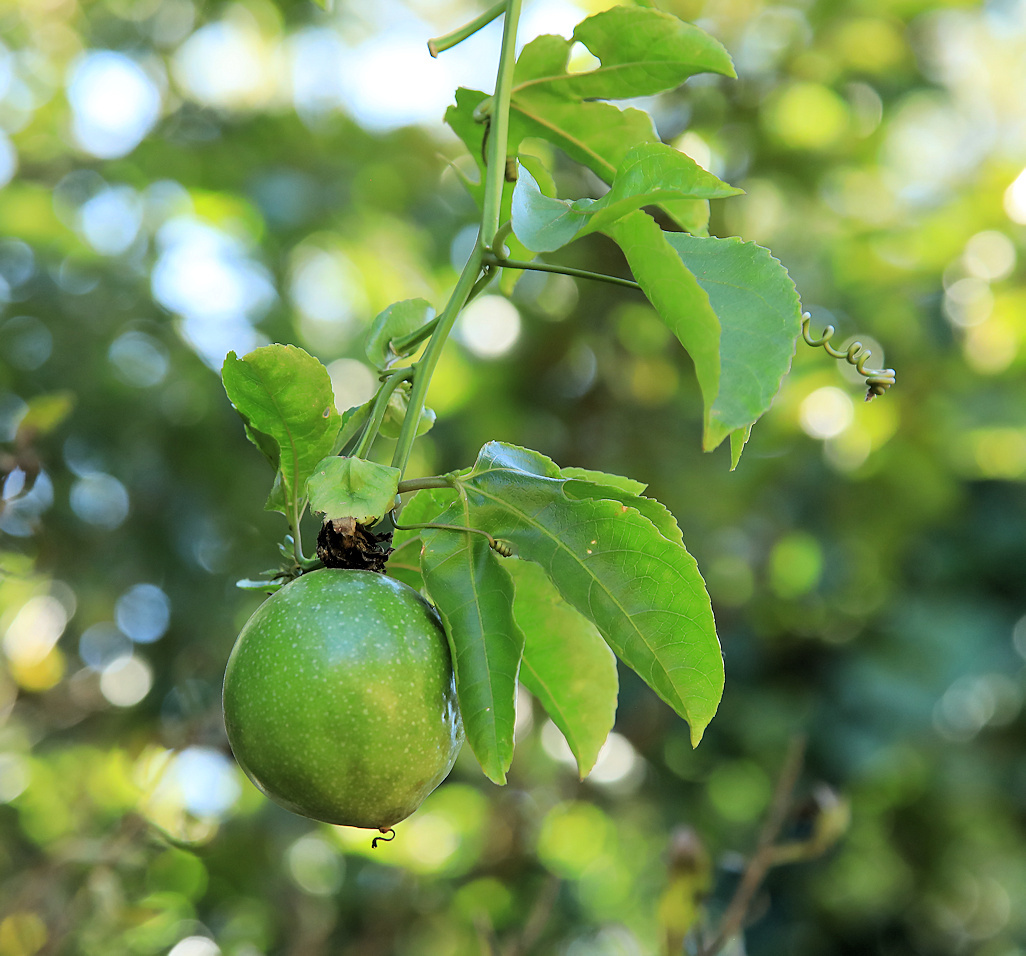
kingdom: Plantae
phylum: Tracheophyta
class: Magnoliopsida
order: Malpighiales
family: Passifloraceae
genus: Passiflora
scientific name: Passiflora edulis
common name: Purple granadilla
